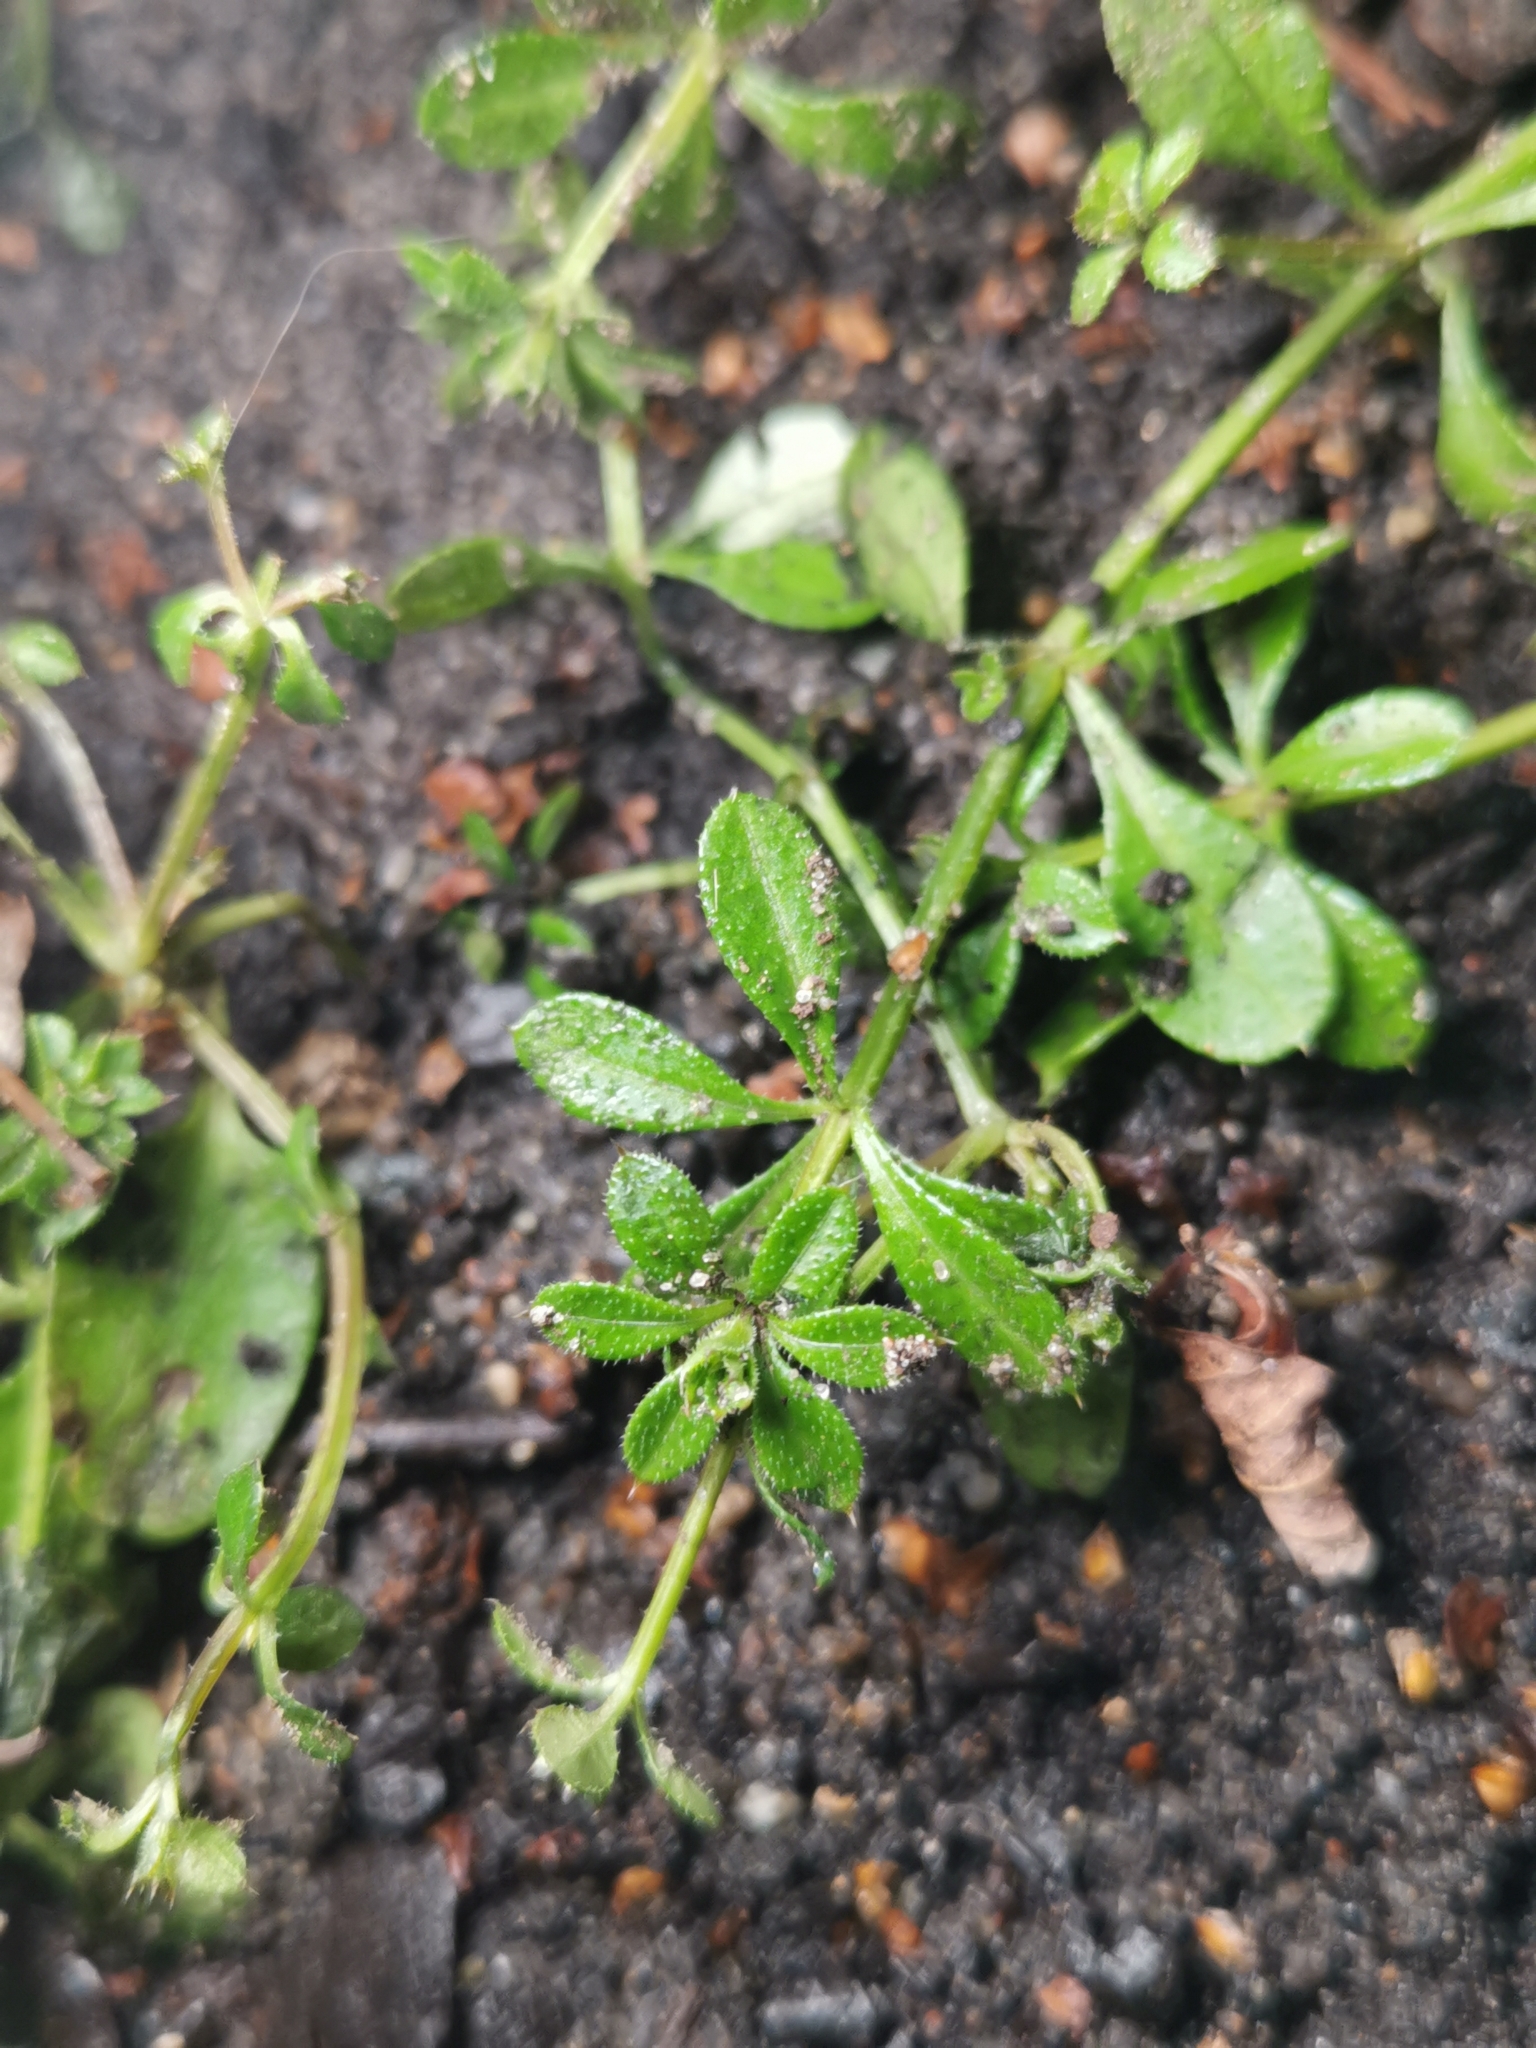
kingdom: Plantae
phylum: Tracheophyta
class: Magnoliopsida
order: Gentianales
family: Rubiaceae
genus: Galium
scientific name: Galium aparine
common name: Cleavers
